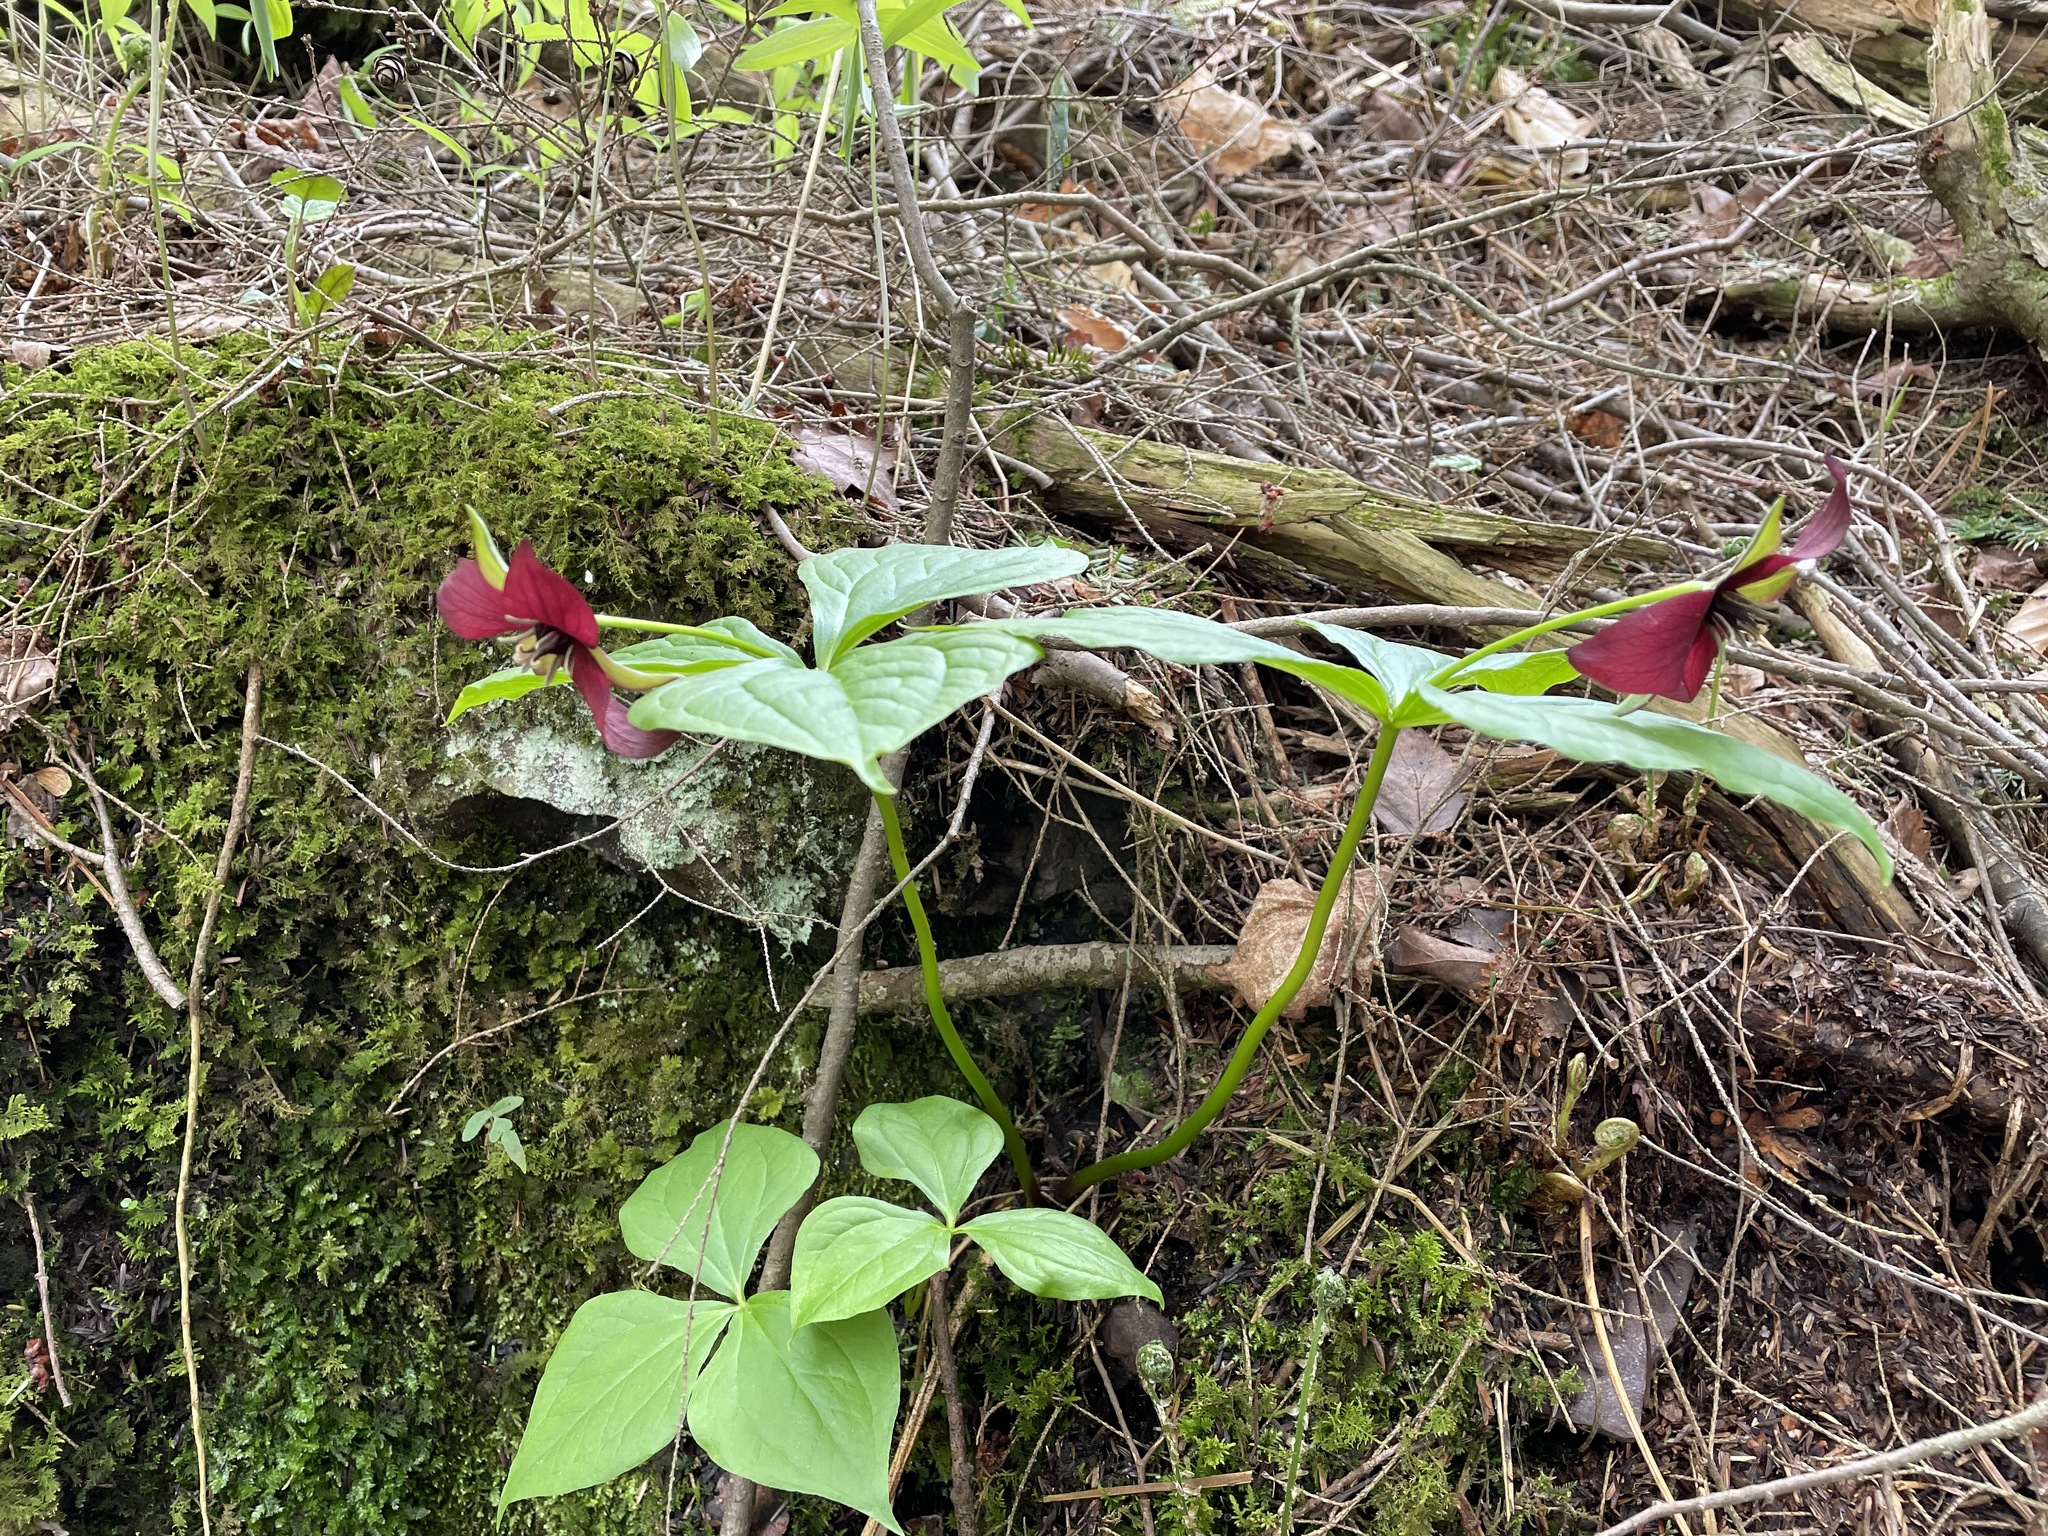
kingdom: Plantae
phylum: Tracheophyta
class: Liliopsida
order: Liliales
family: Melanthiaceae
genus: Trillium
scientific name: Trillium erectum
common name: Purple trillium
